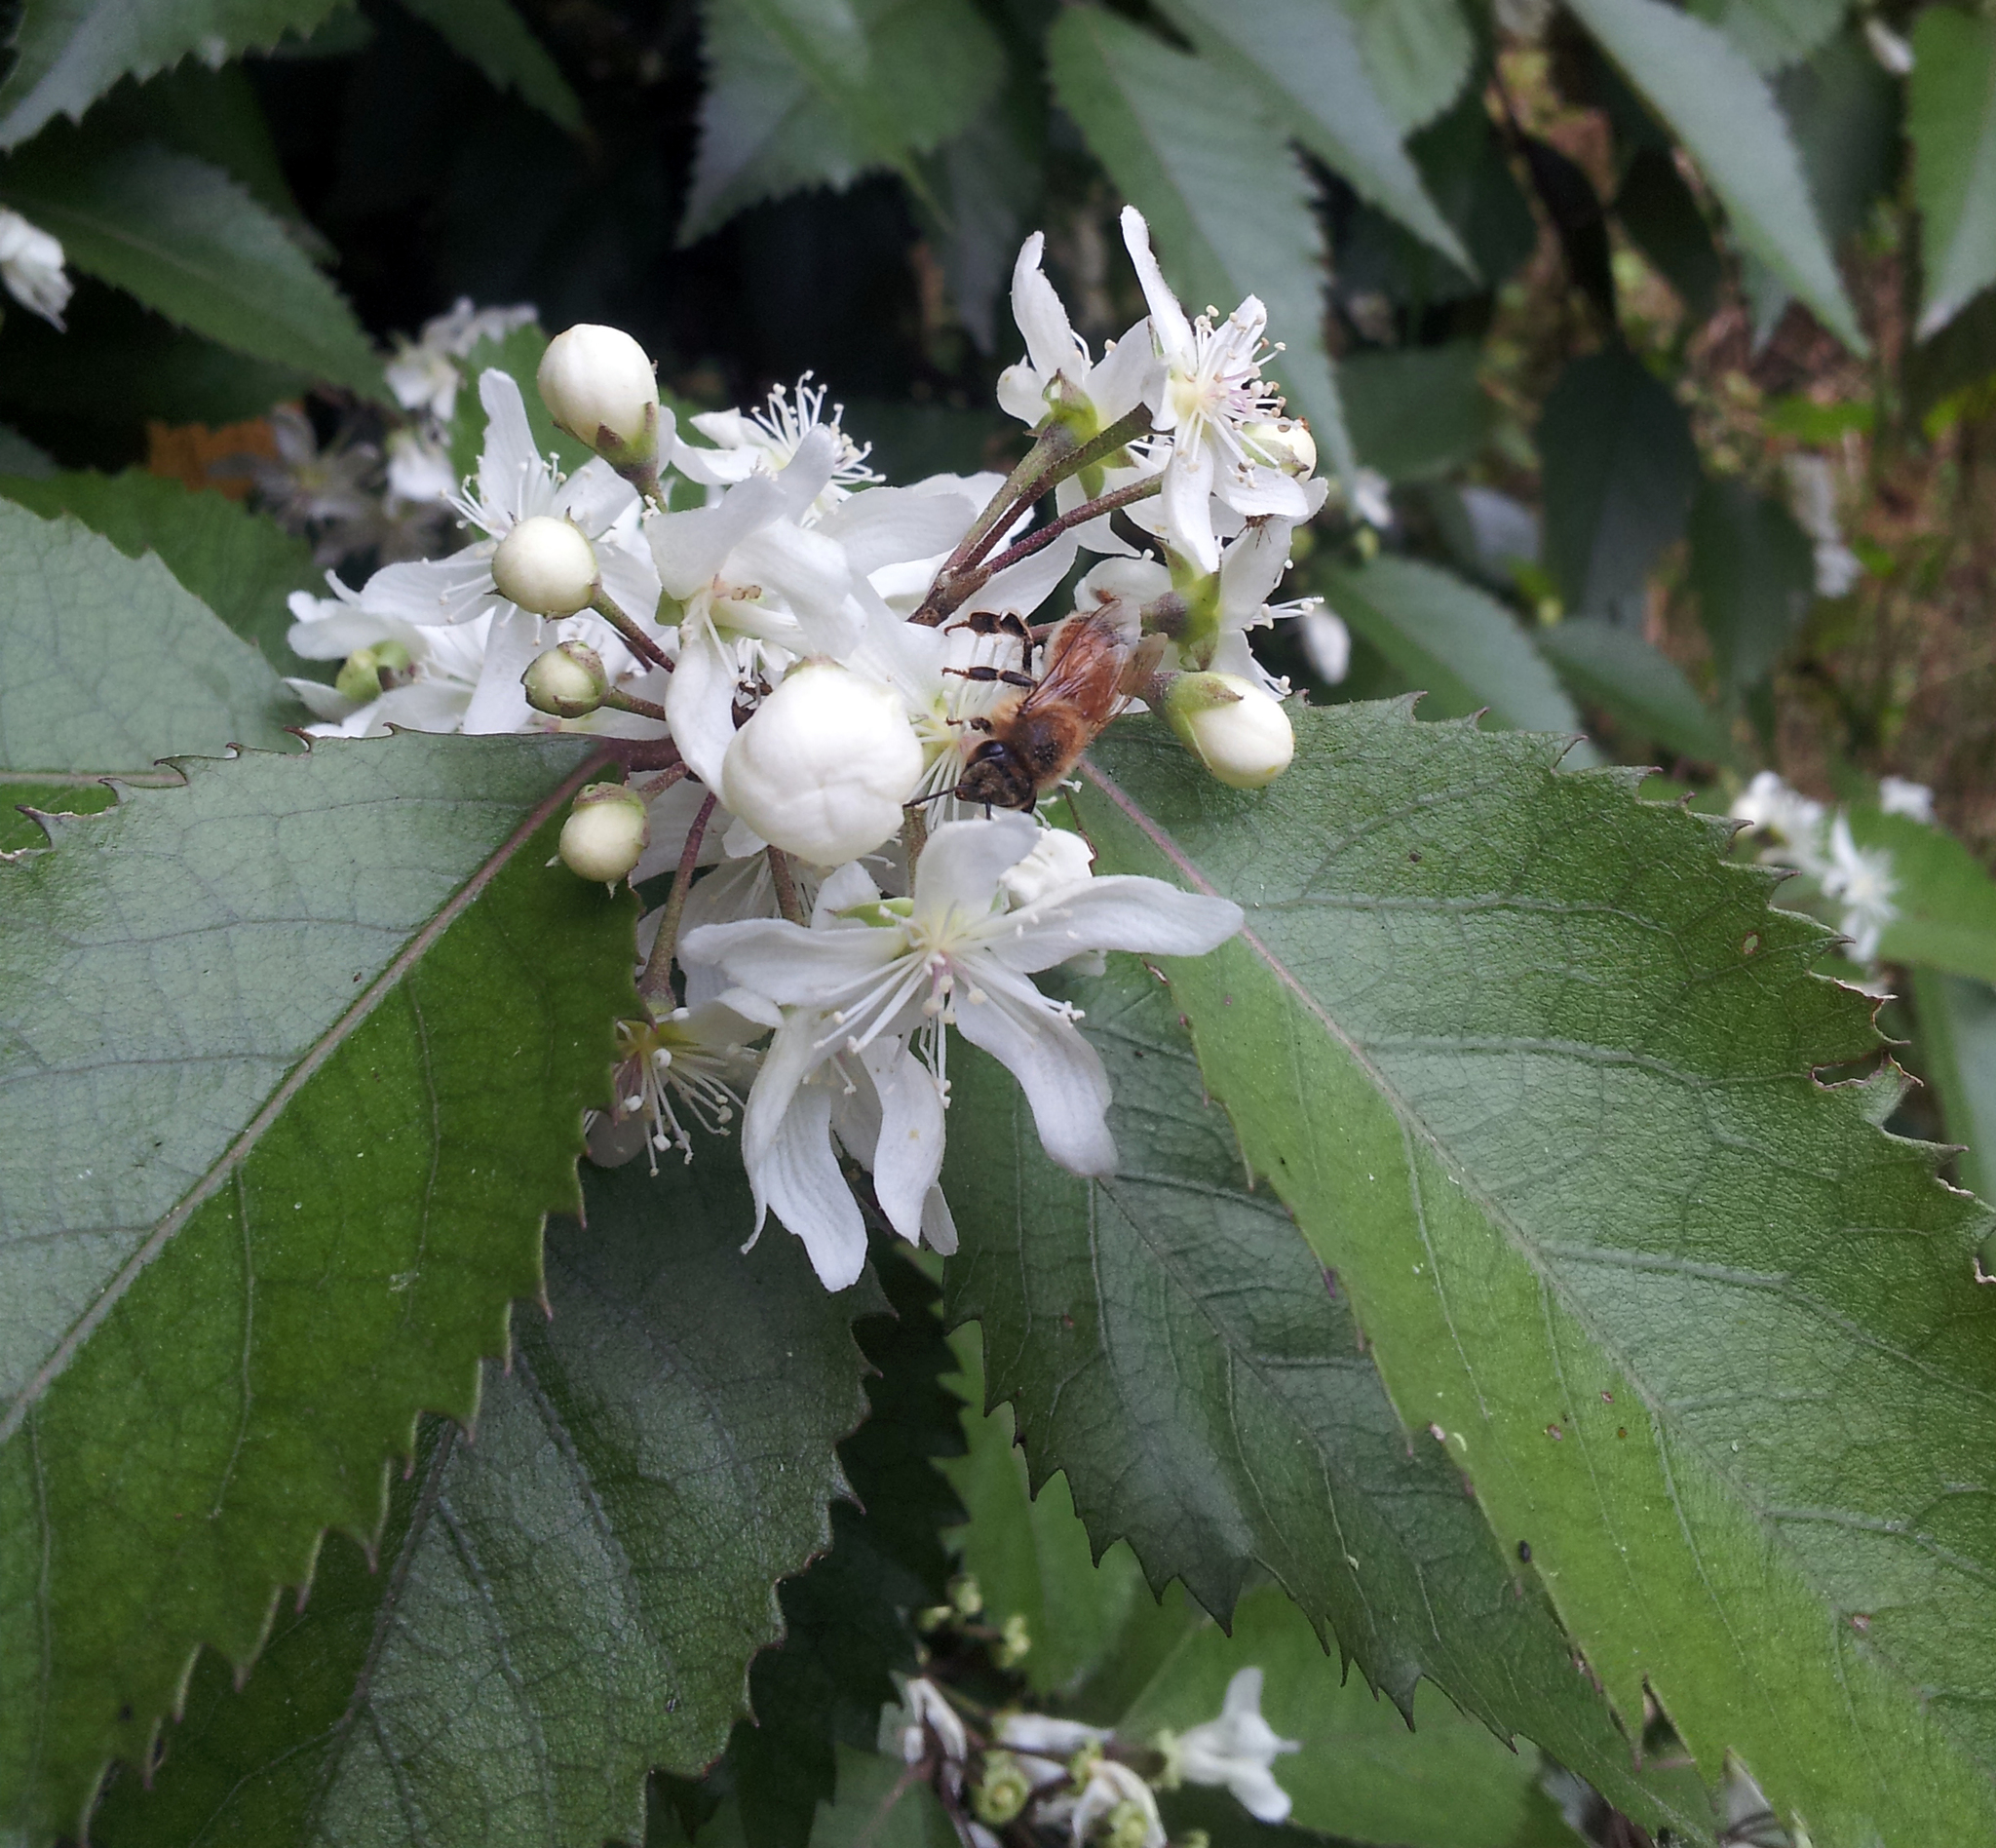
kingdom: Animalia
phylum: Arthropoda
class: Insecta
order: Hymenoptera
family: Apidae
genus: Apis
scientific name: Apis mellifera
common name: Honey bee
